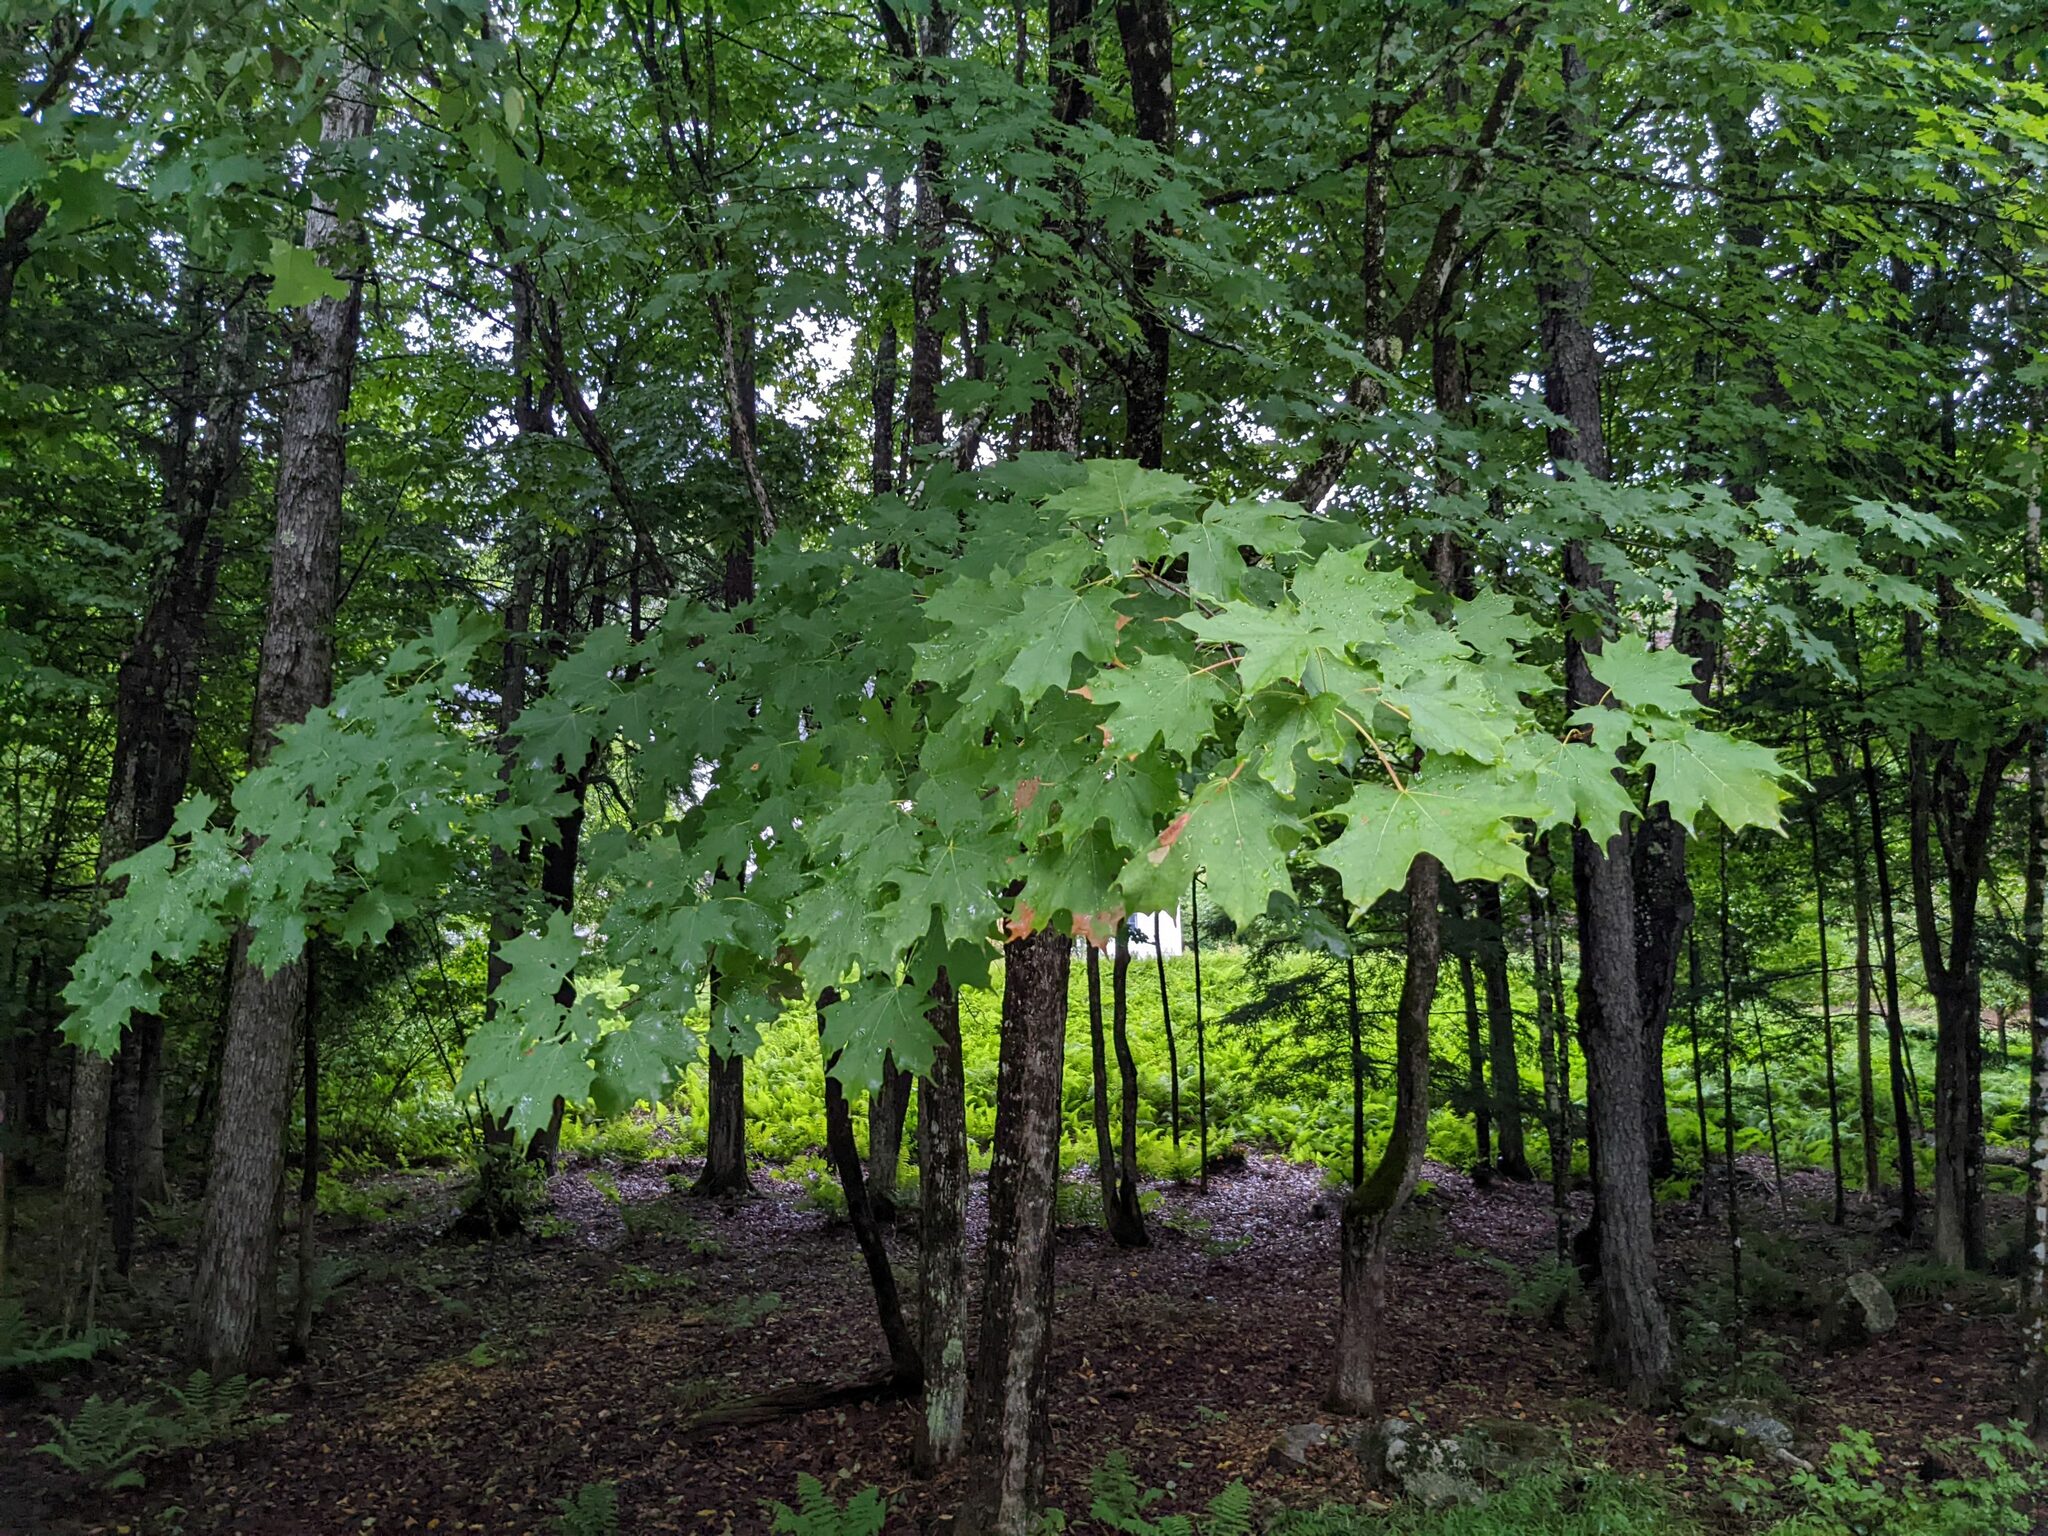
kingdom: Plantae
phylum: Tracheophyta
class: Magnoliopsida
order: Sapindales
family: Sapindaceae
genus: Acer
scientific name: Acer saccharum
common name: Sugar maple
